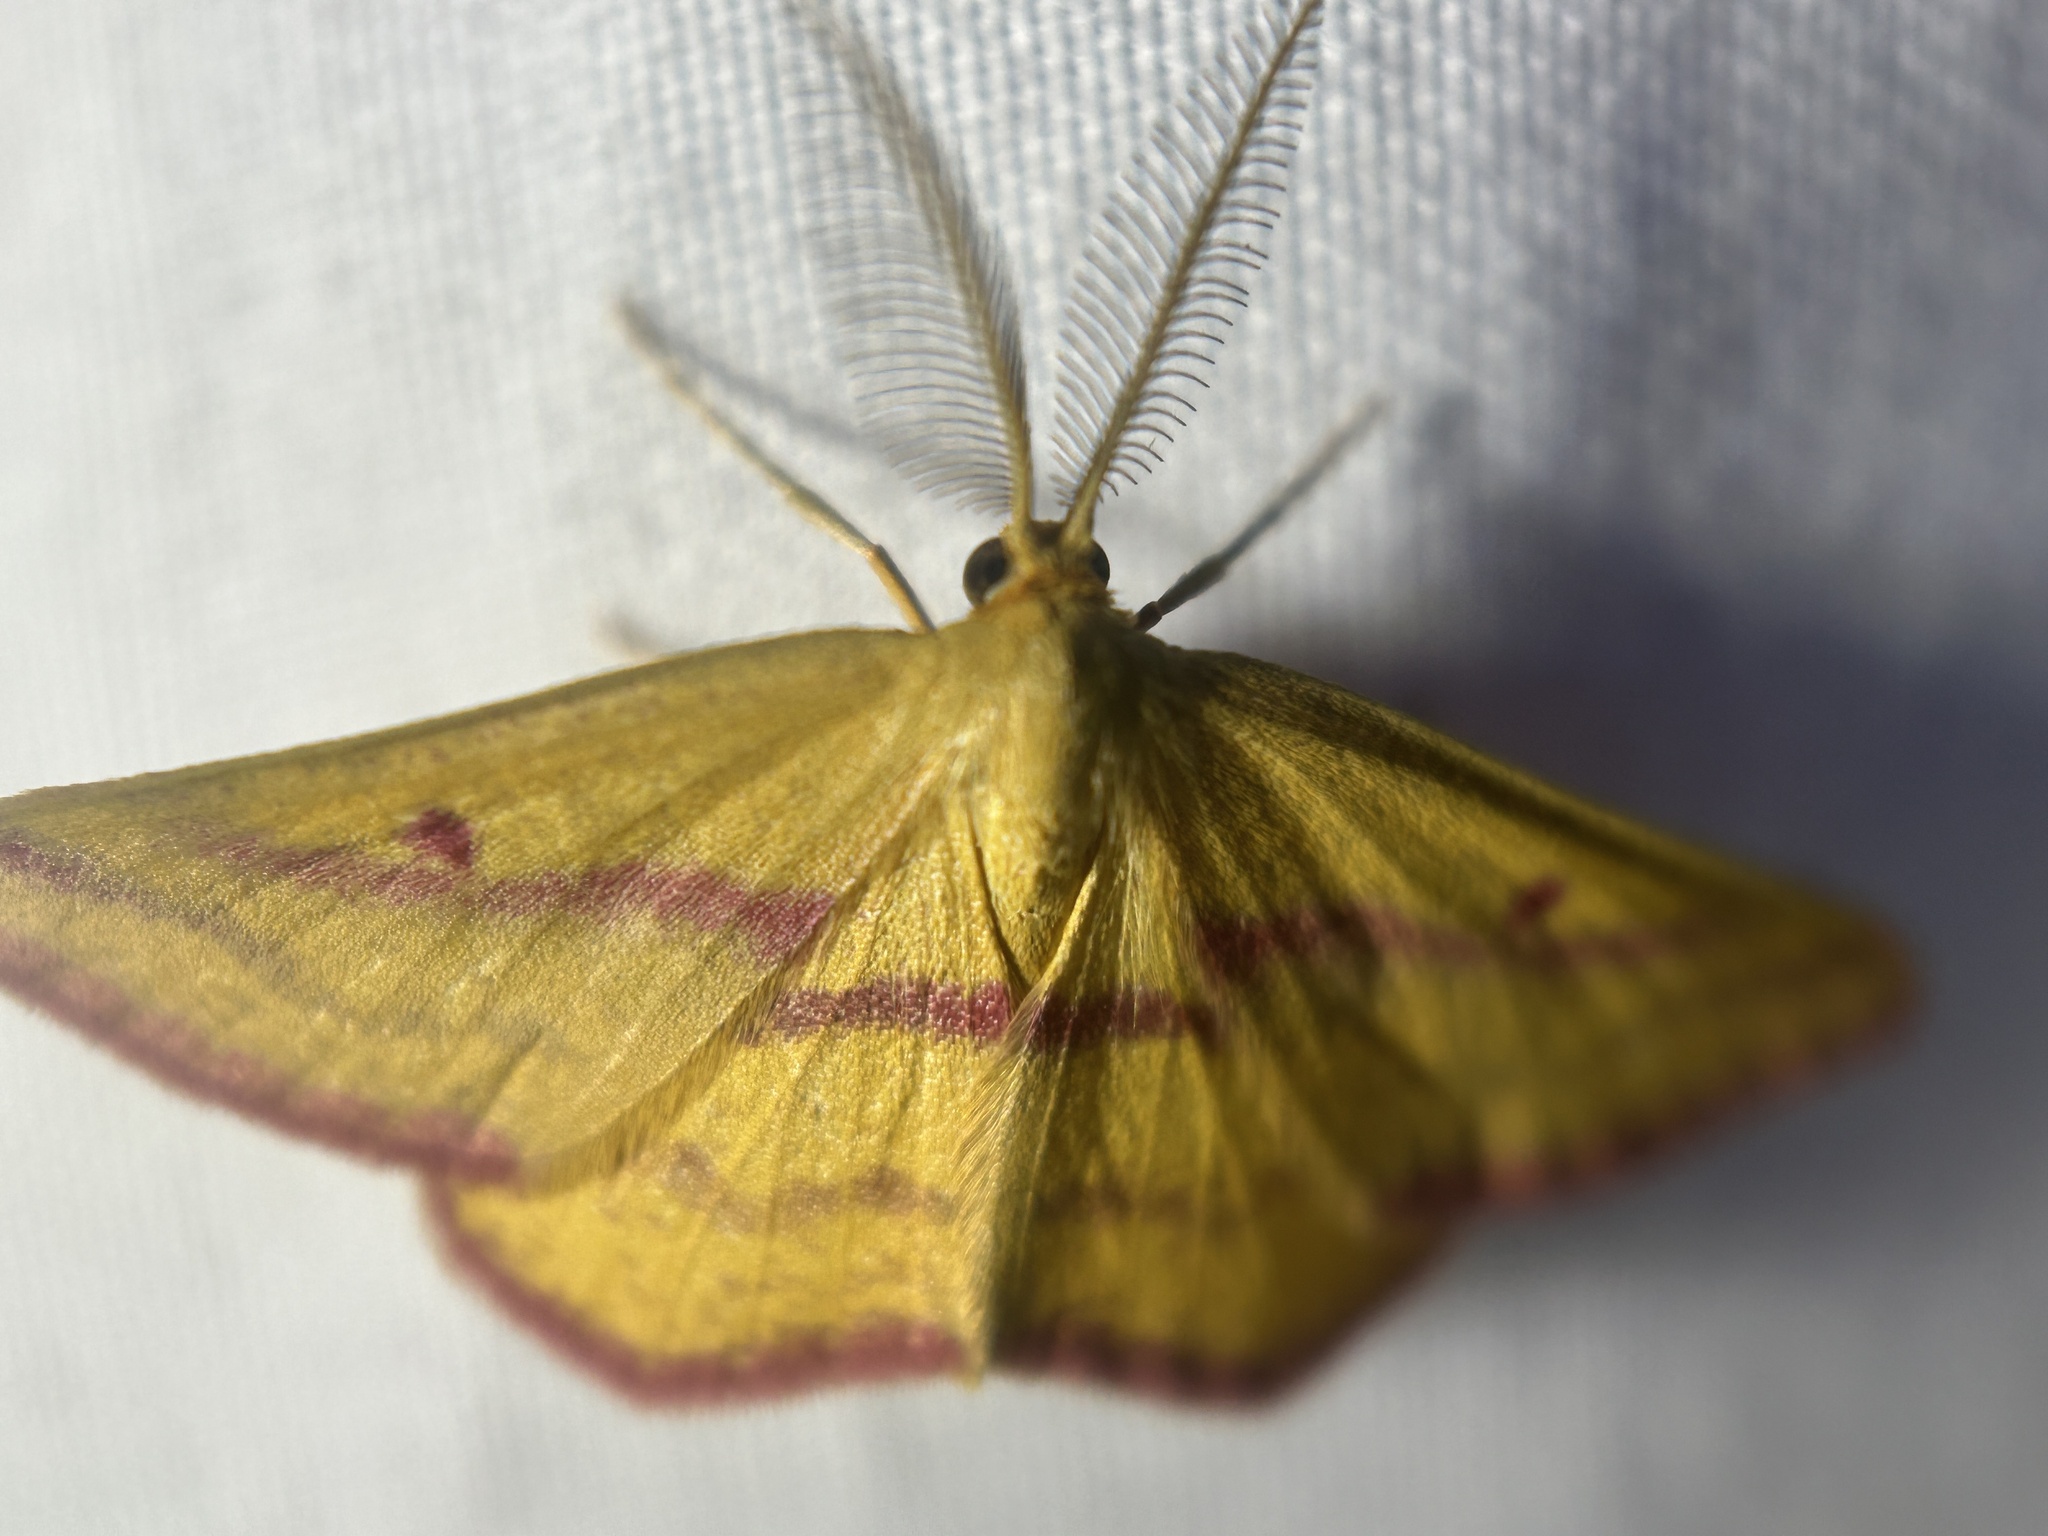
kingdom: Animalia
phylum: Arthropoda
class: Insecta
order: Lepidoptera
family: Geometridae
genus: Haematopis
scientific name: Haematopis grataria
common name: Chickweed geometer
